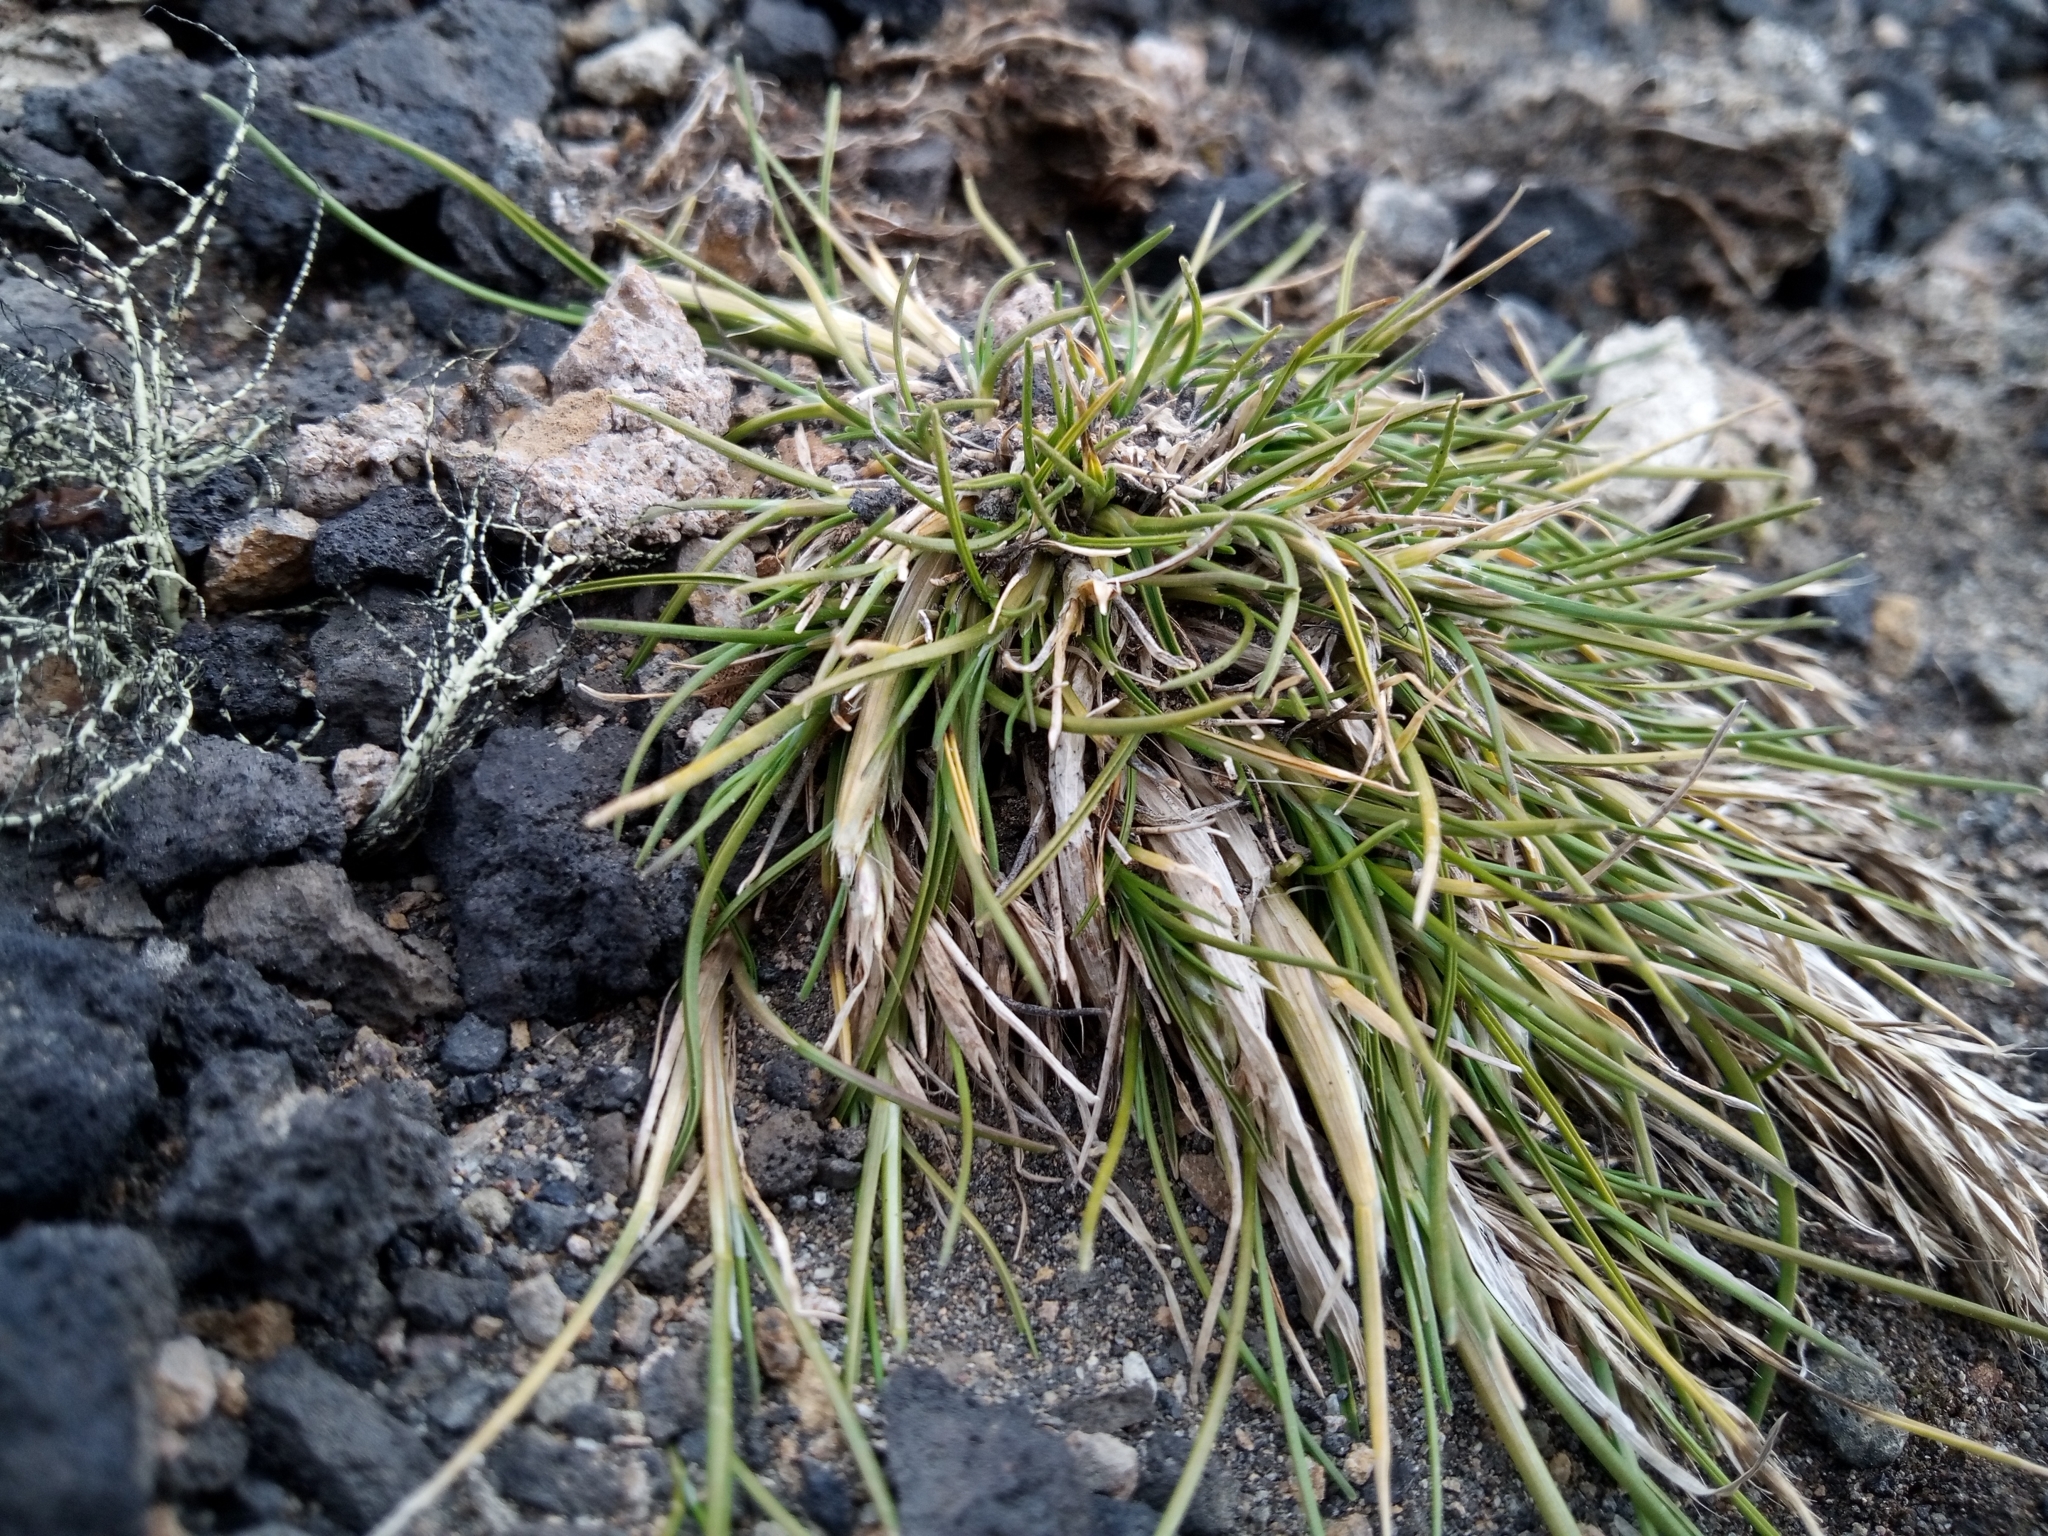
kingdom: Plantae
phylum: Tracheophyta
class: Liliopsida
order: Poales
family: Poaceae
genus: Deschampsia
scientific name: Deschampsia antarctica
